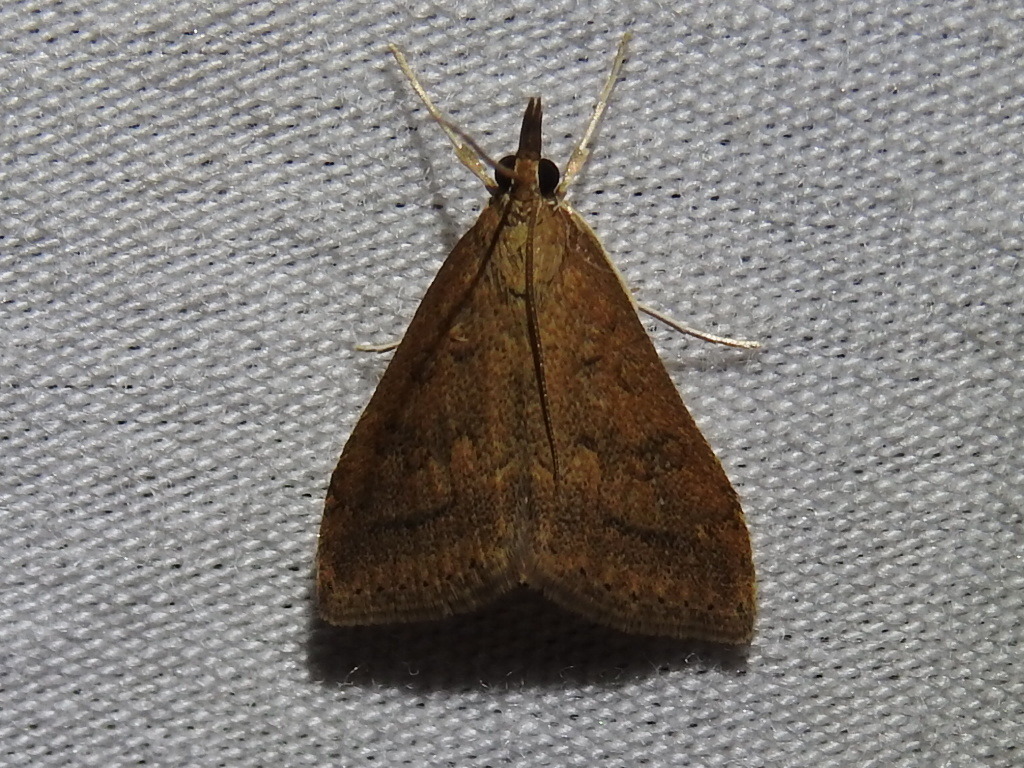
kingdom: Animalia
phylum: Arthropoda
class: Insecta
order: Lepidoptera
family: Crambidae
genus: Udea
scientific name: Udea rubigalis
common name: Celery leaftier moth
